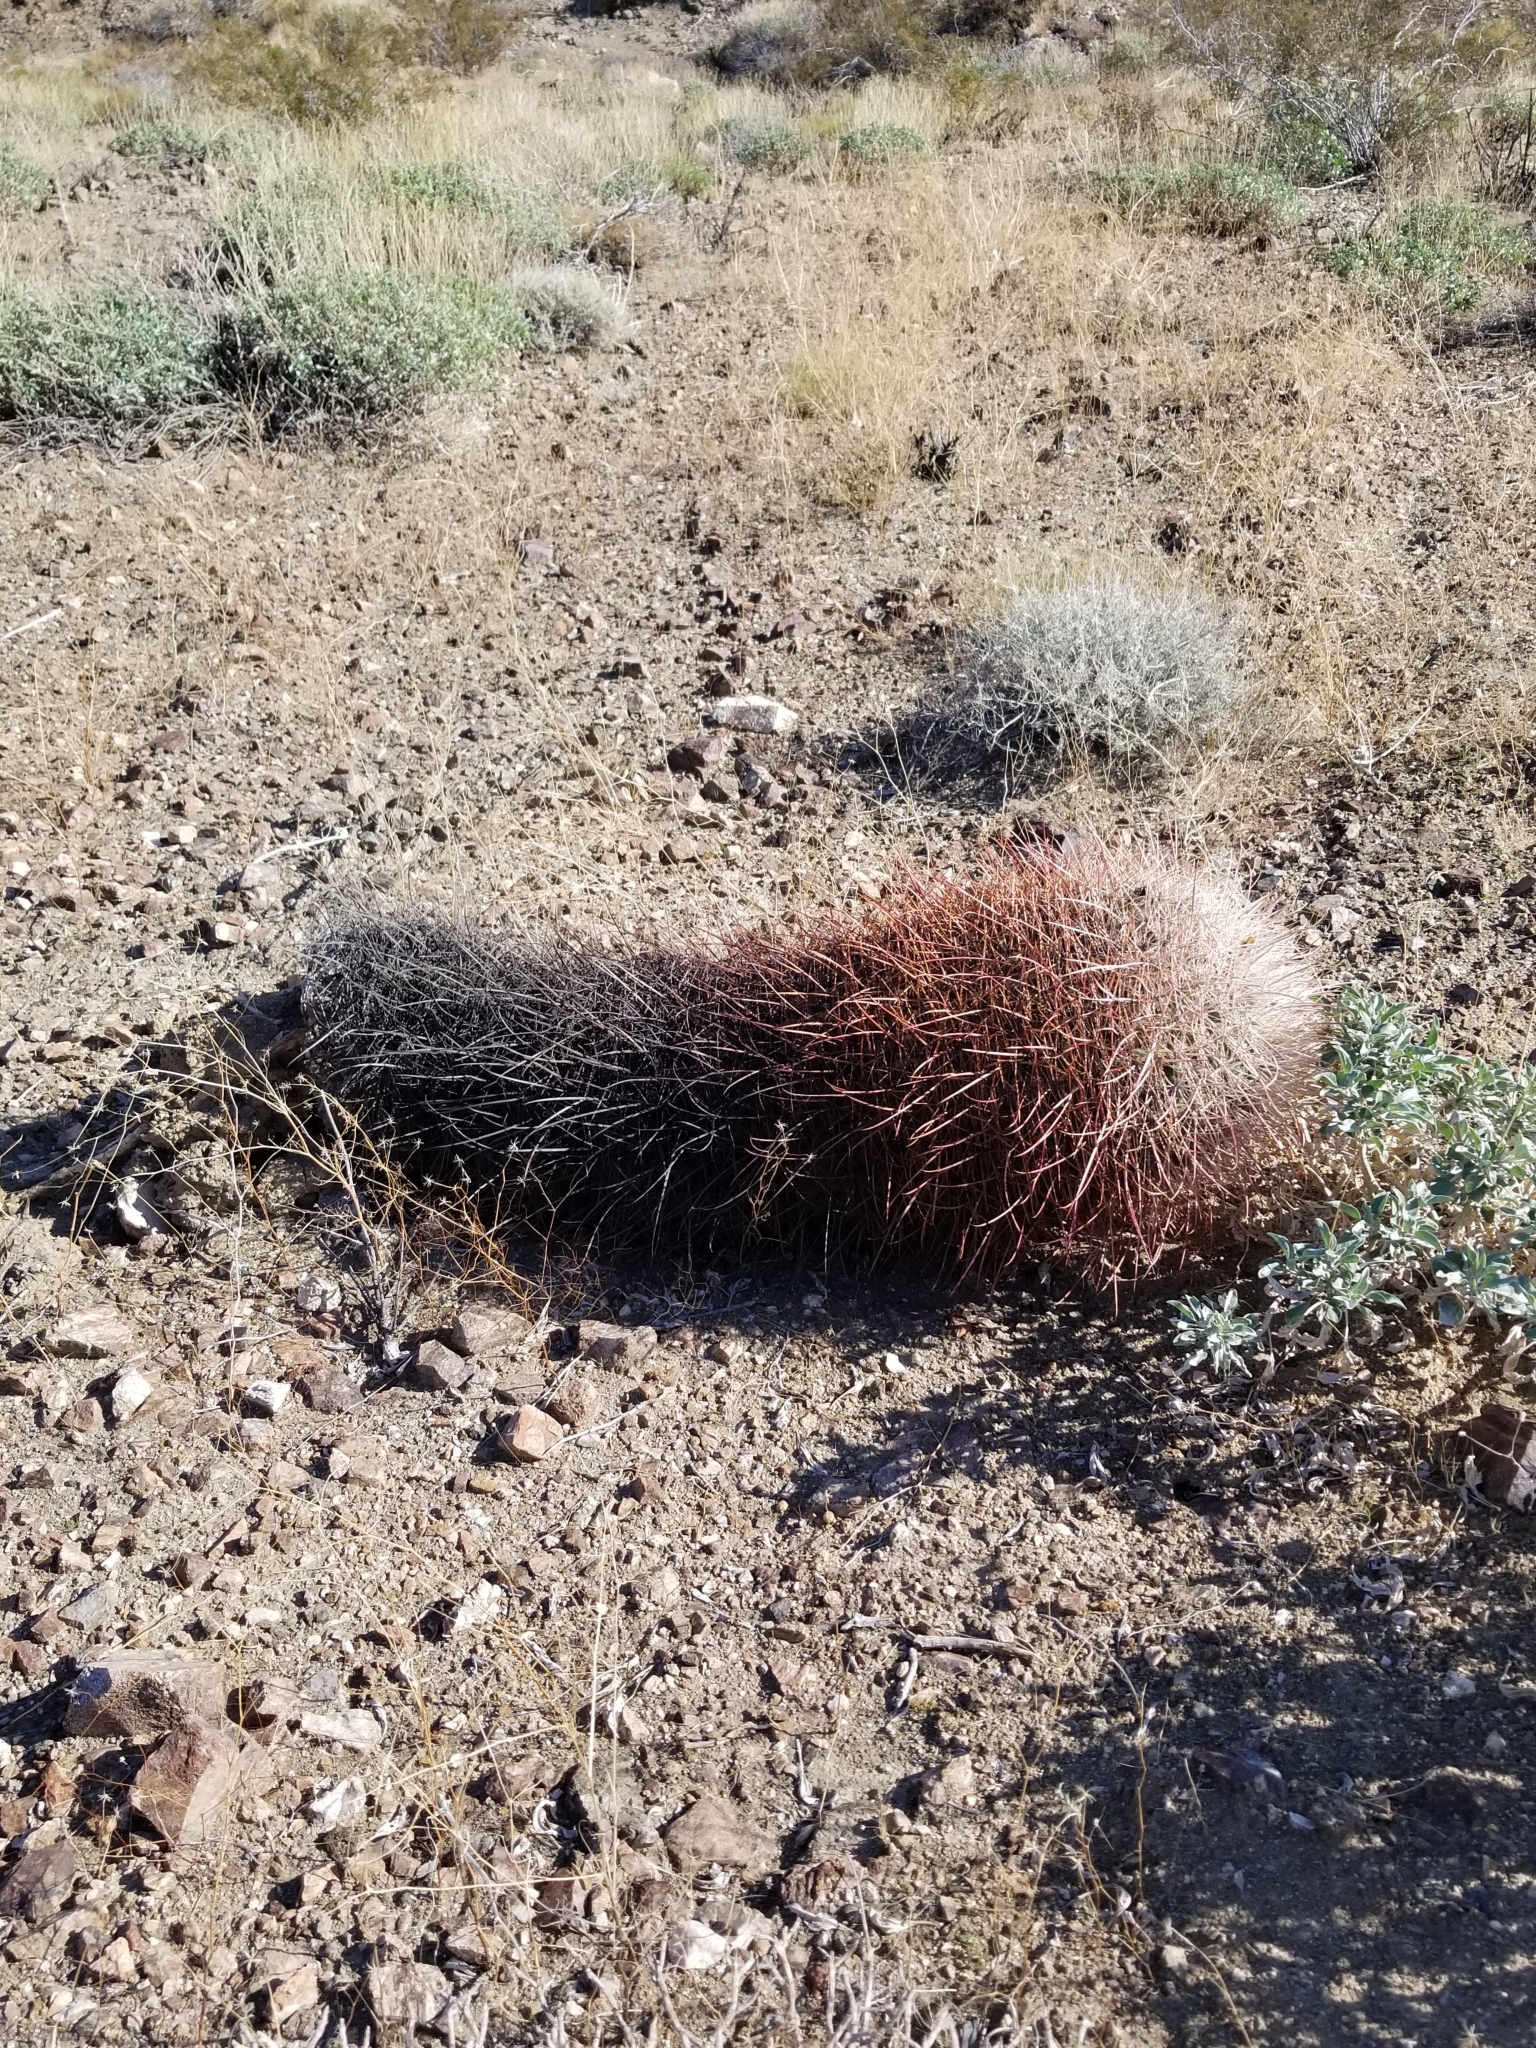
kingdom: Plantae
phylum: Tracheophyta
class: Magnoliopsida
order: Caryophyllales
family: Cactaceae
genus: Ferocactus
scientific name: Ferocactus cylindraceus
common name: California barrel cactus
